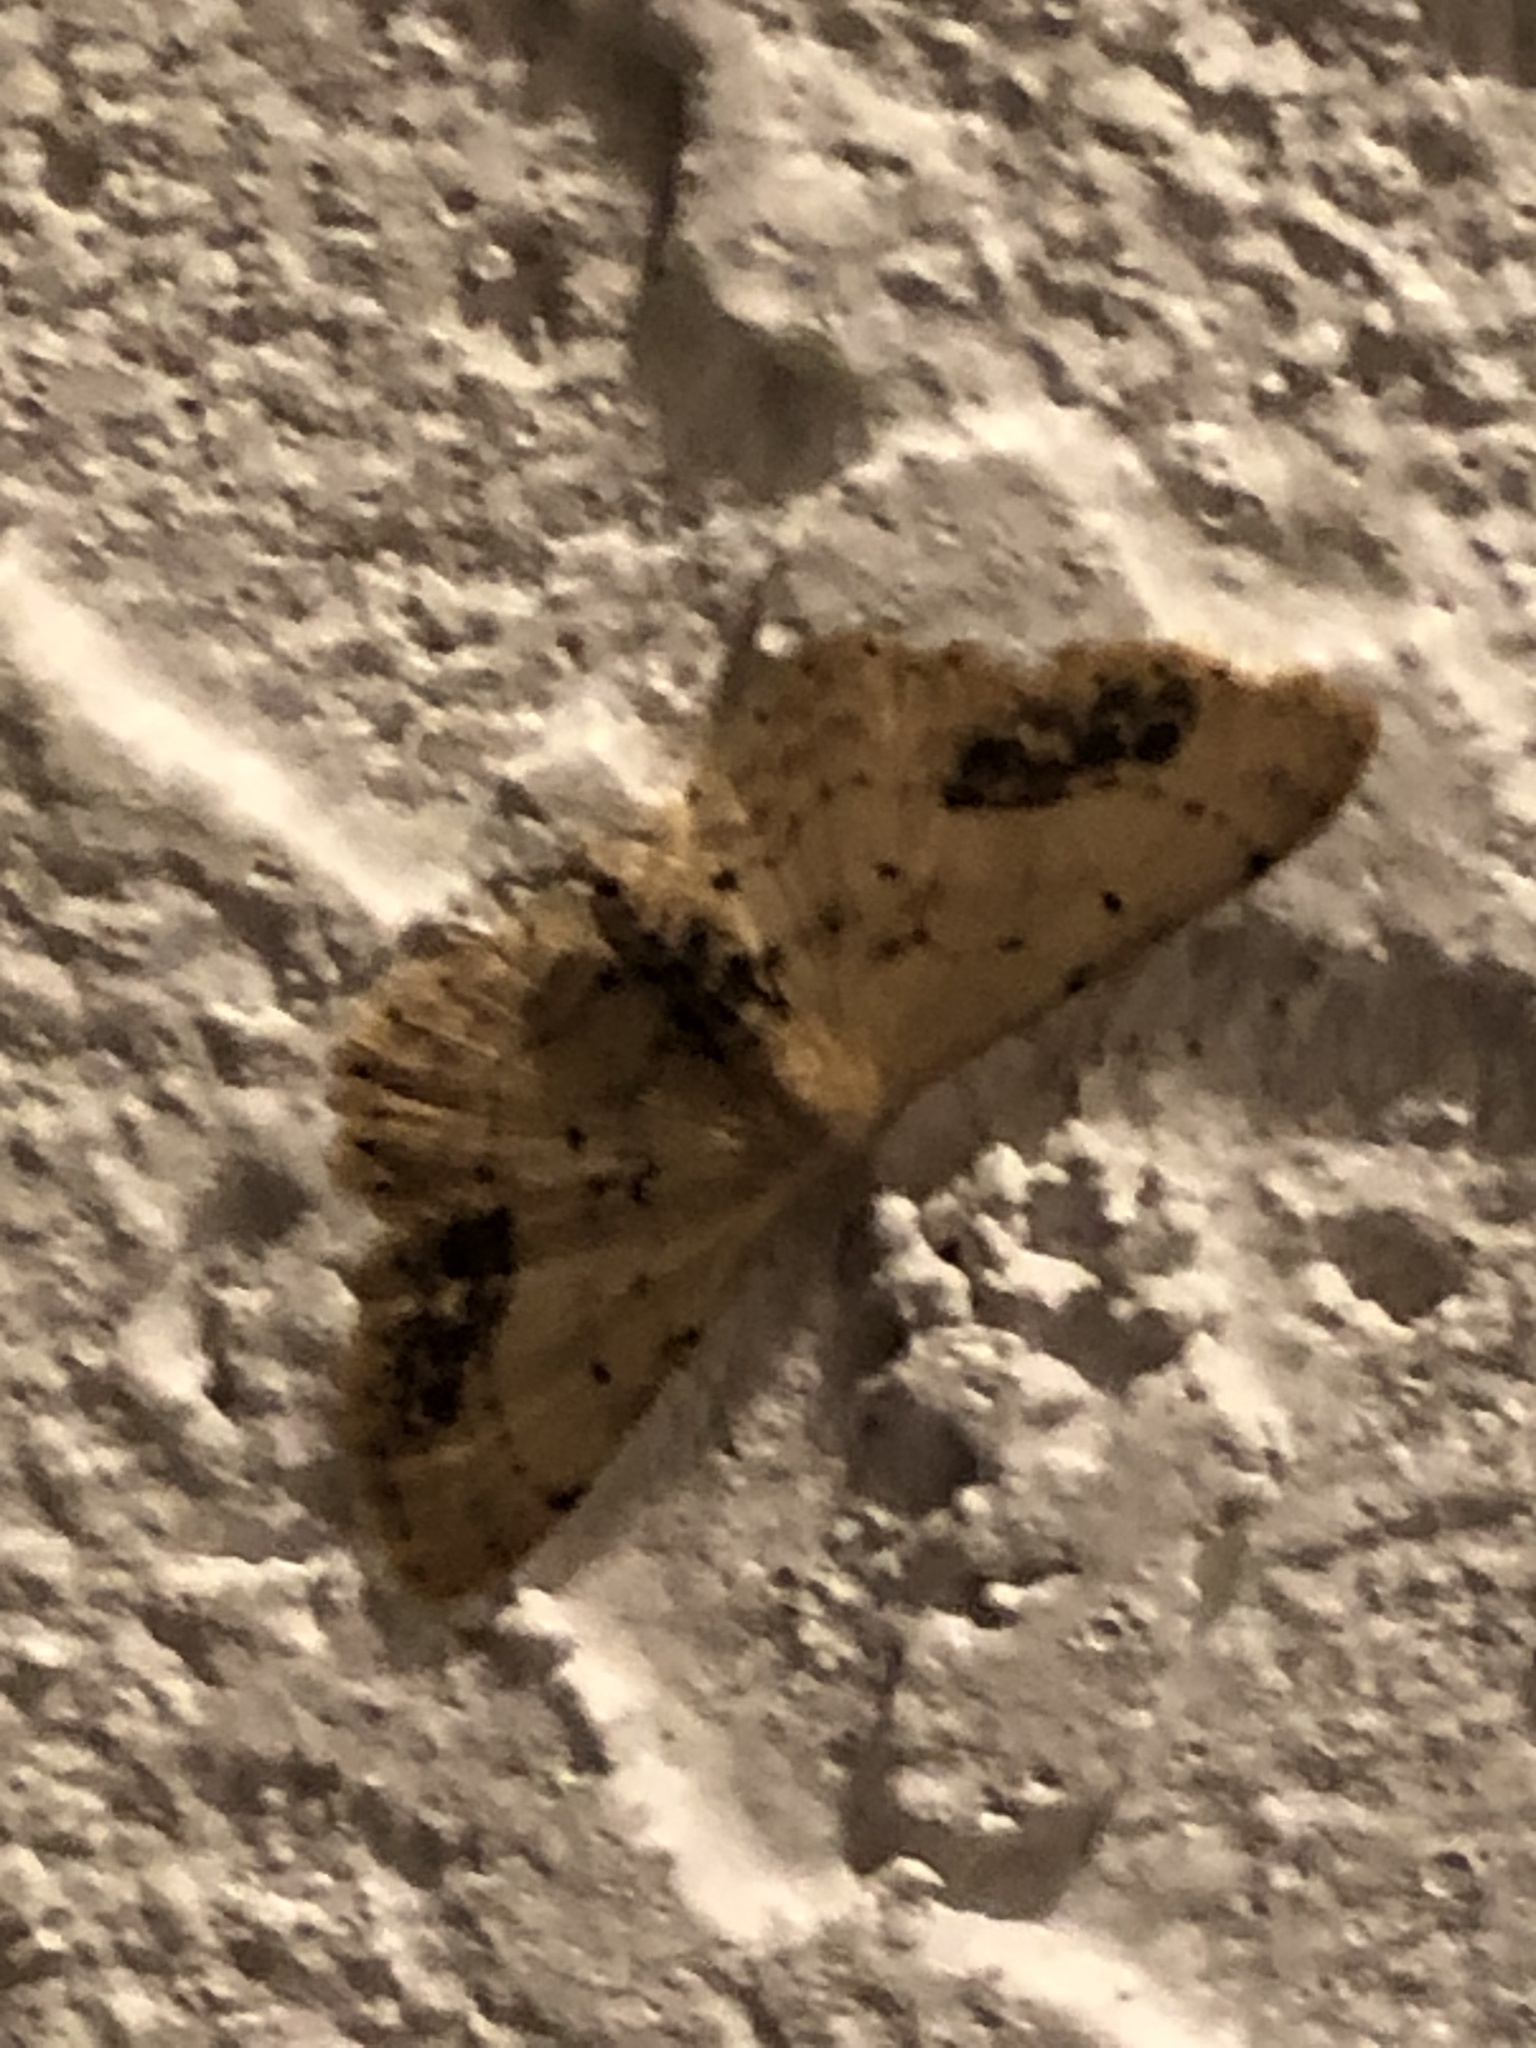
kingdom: Animalia
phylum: Arthropoda
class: Insecta
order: Lepidoptera
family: Geometridae
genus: Idaea
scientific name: Idaea dimidiata
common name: Single-dotted wave
